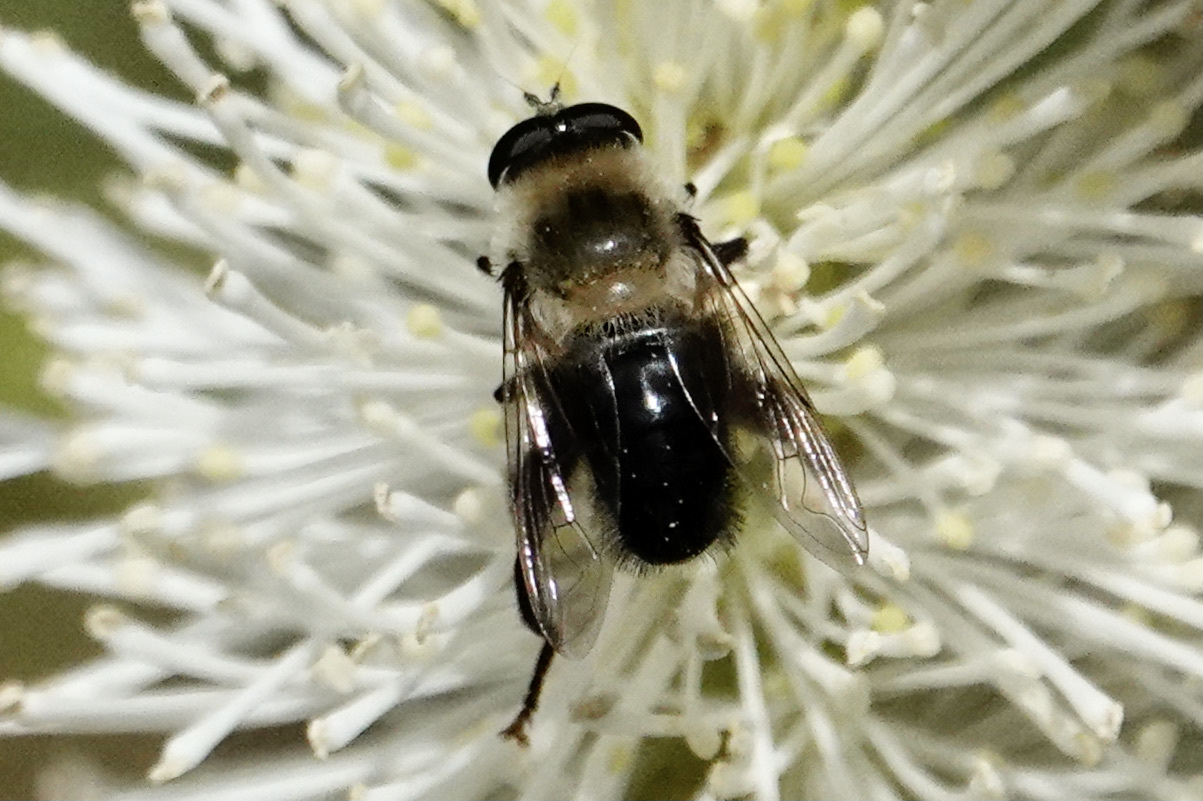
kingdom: Animalia
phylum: Arthropoda
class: Insecta
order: Diptera
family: Syrphidae
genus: Imatisma
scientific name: Imatisma bautias
